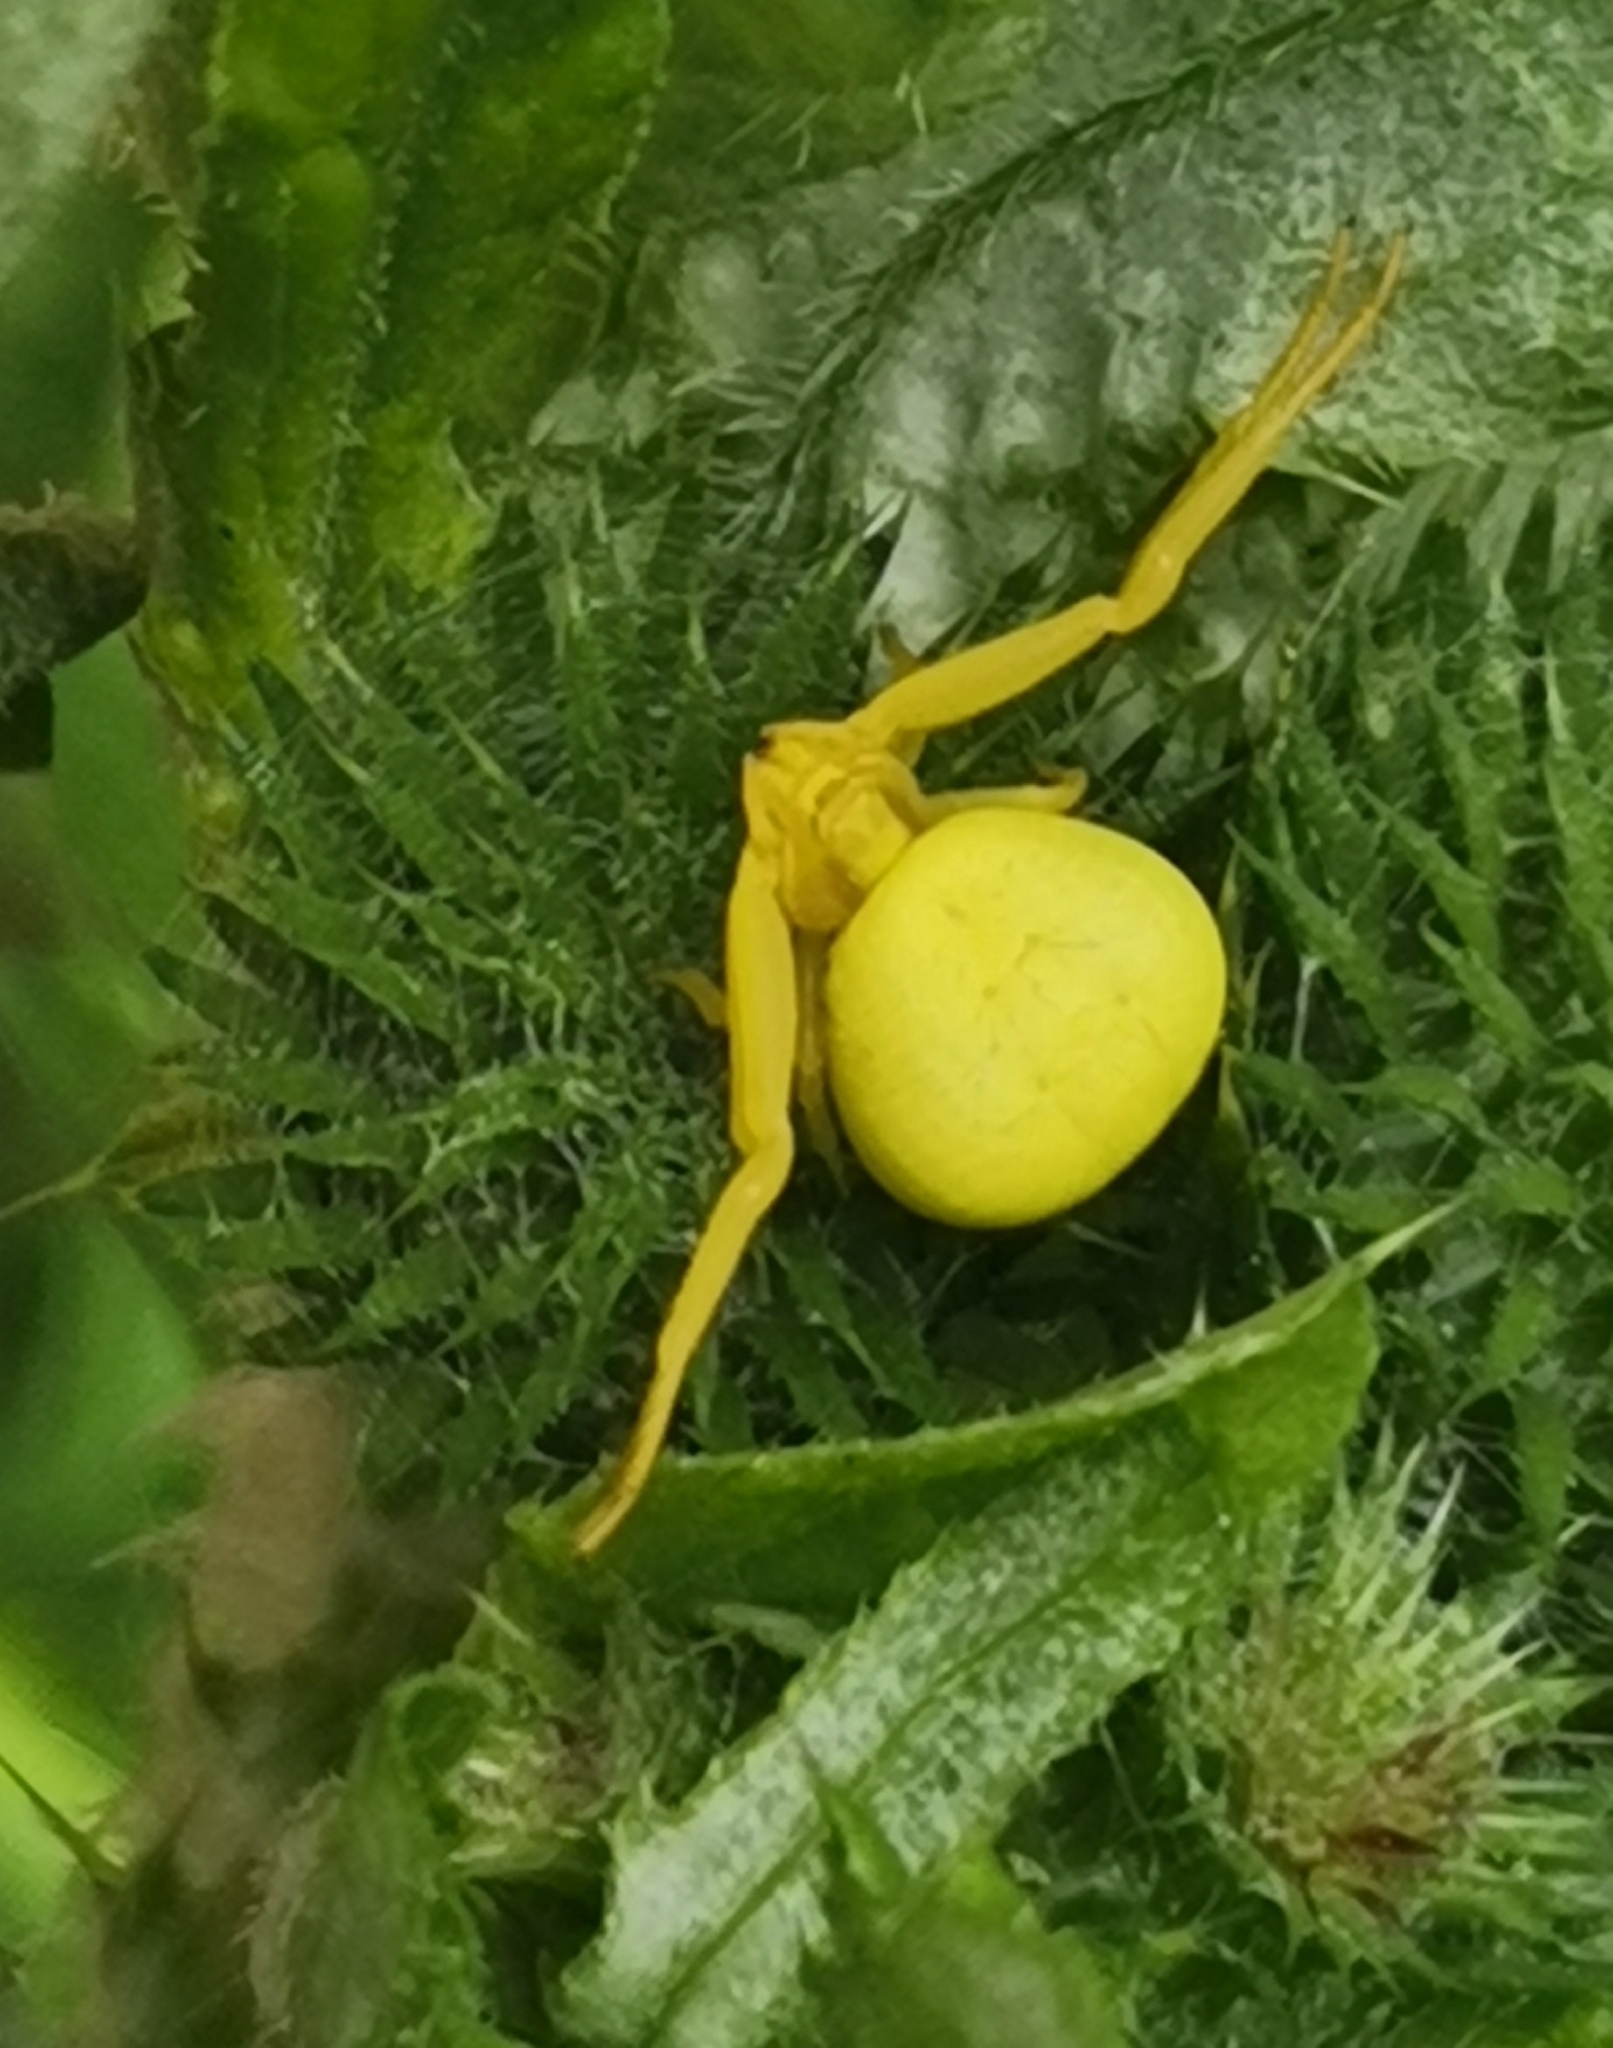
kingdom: Animalia
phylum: Arthropoda
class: Arachnida
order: Araneae
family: Thomisidae
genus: Misumena
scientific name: Misumena vatia
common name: Goldenrod crab spider
